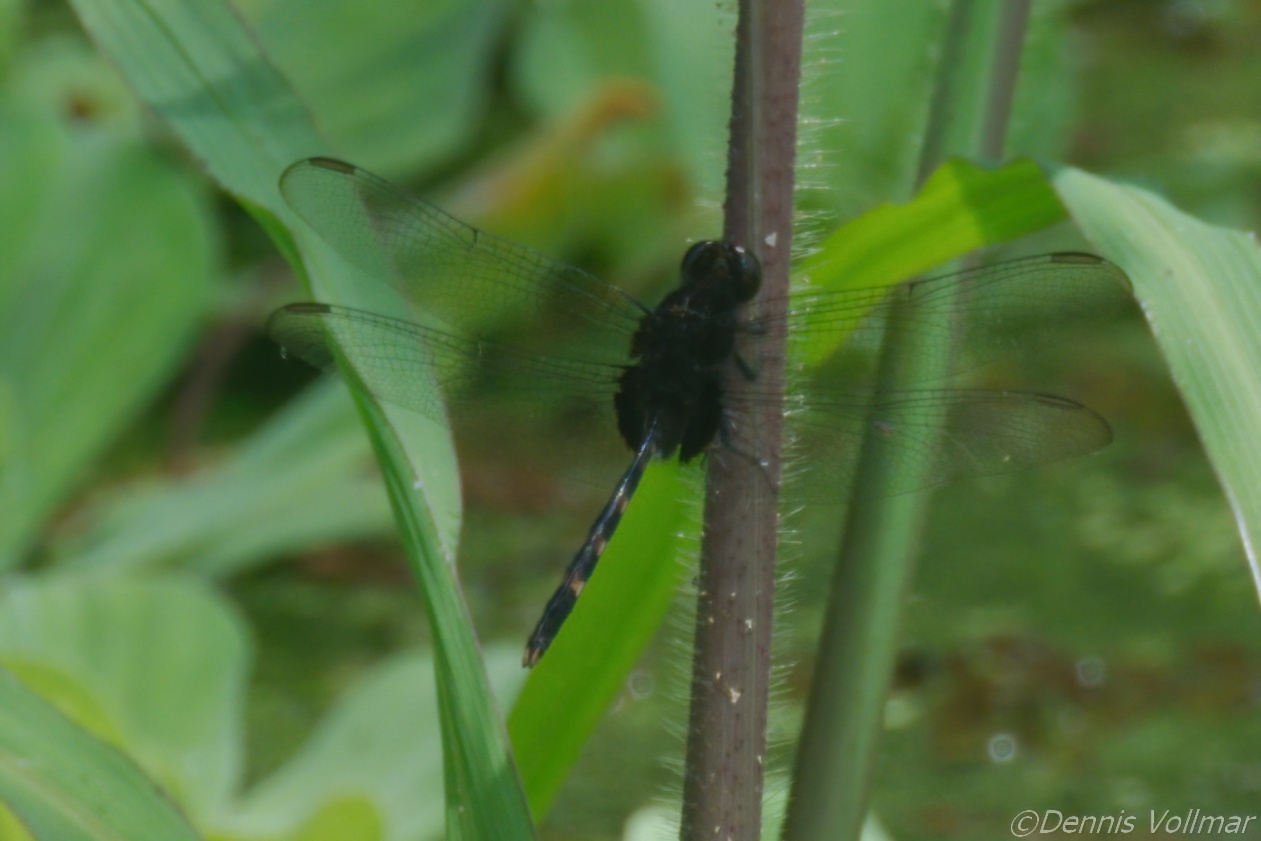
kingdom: Animalia
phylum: Arthropoda
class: Insecta
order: Odonata
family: Libellulidae
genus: Erythemis
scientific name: Erythemis plebeja
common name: Pin-tailed pondhawk
